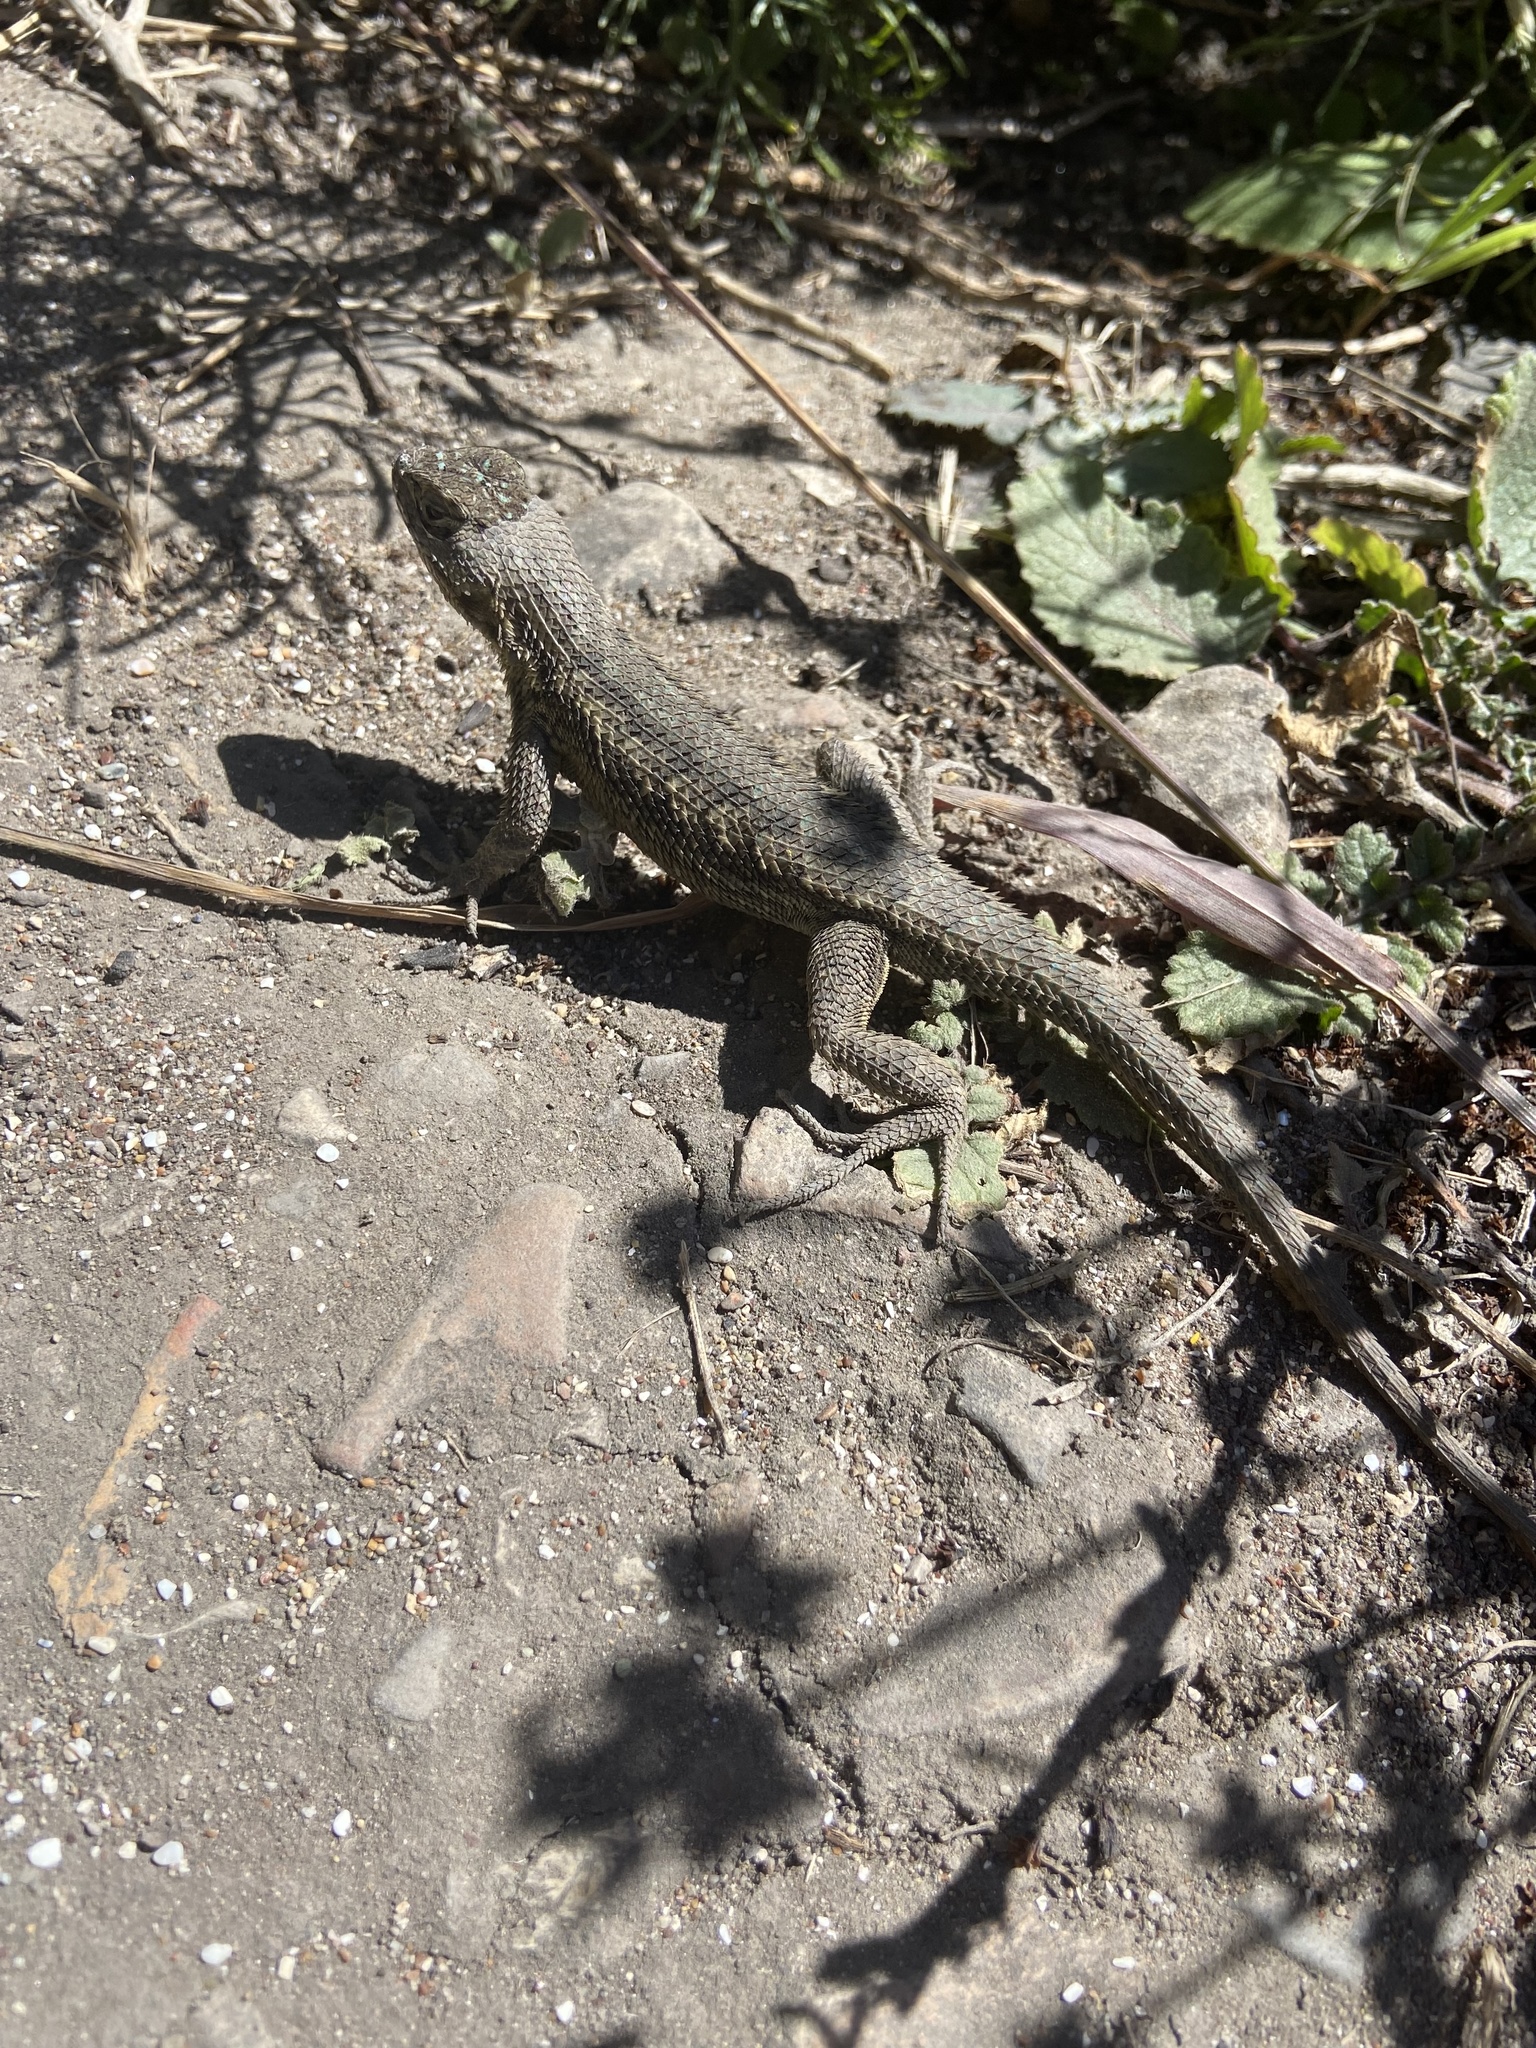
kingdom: Animalia
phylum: Chordata
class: Squamata
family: Phrynosomatidae
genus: Sceloporus
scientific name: Sceloporus occidentalis
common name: Western fence lizard
